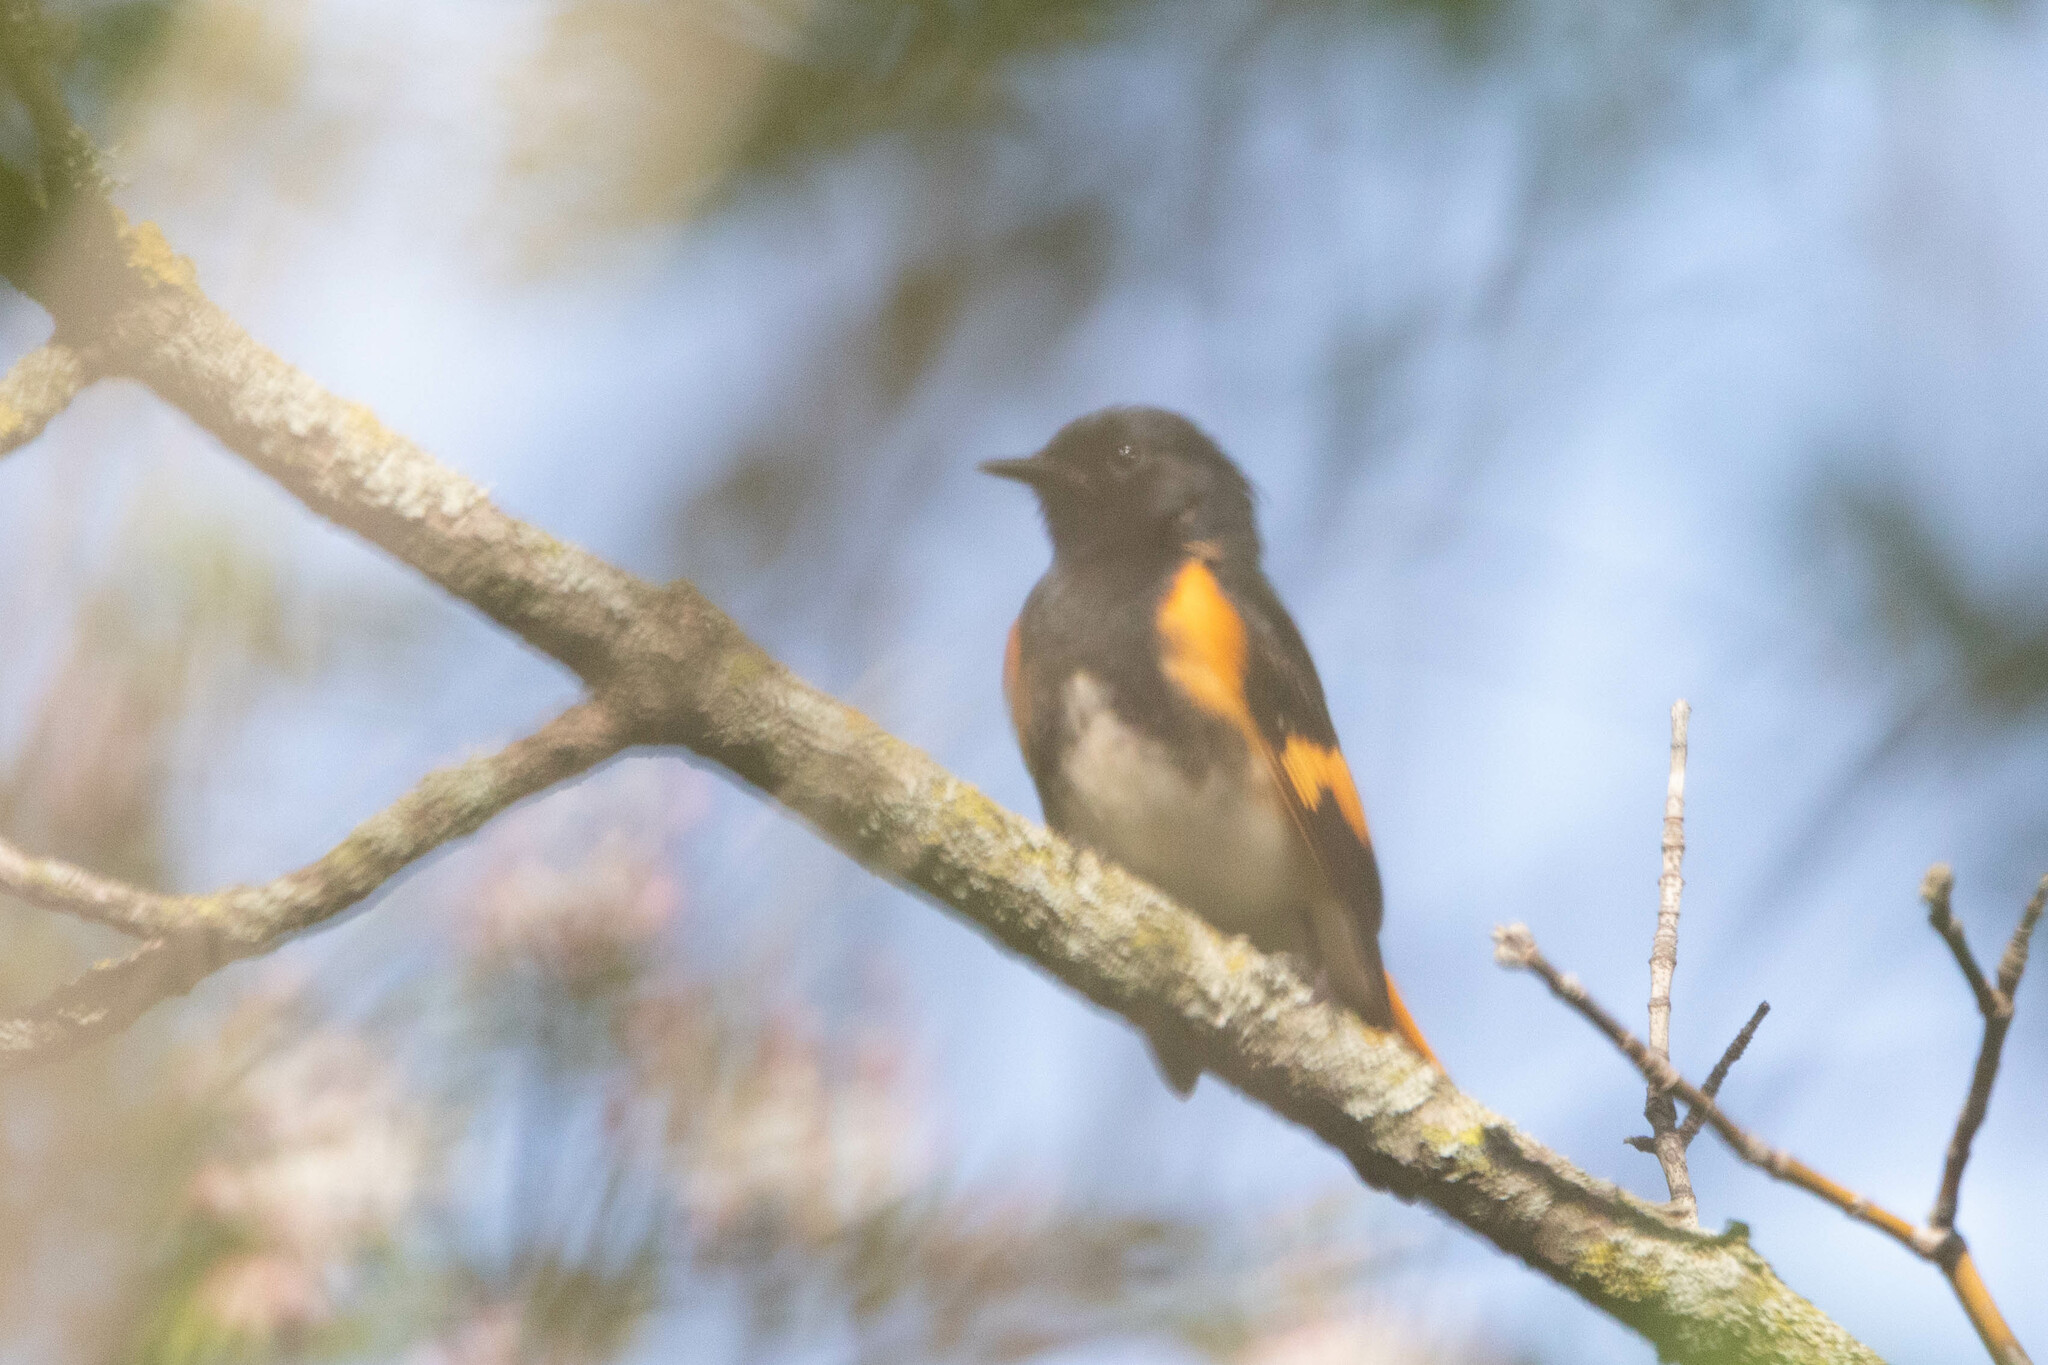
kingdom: Animalia
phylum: Chordata
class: Aves
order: Passeriformes
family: Parulidae
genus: Setophaga
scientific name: Setophaga ruticilla
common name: American redstart
